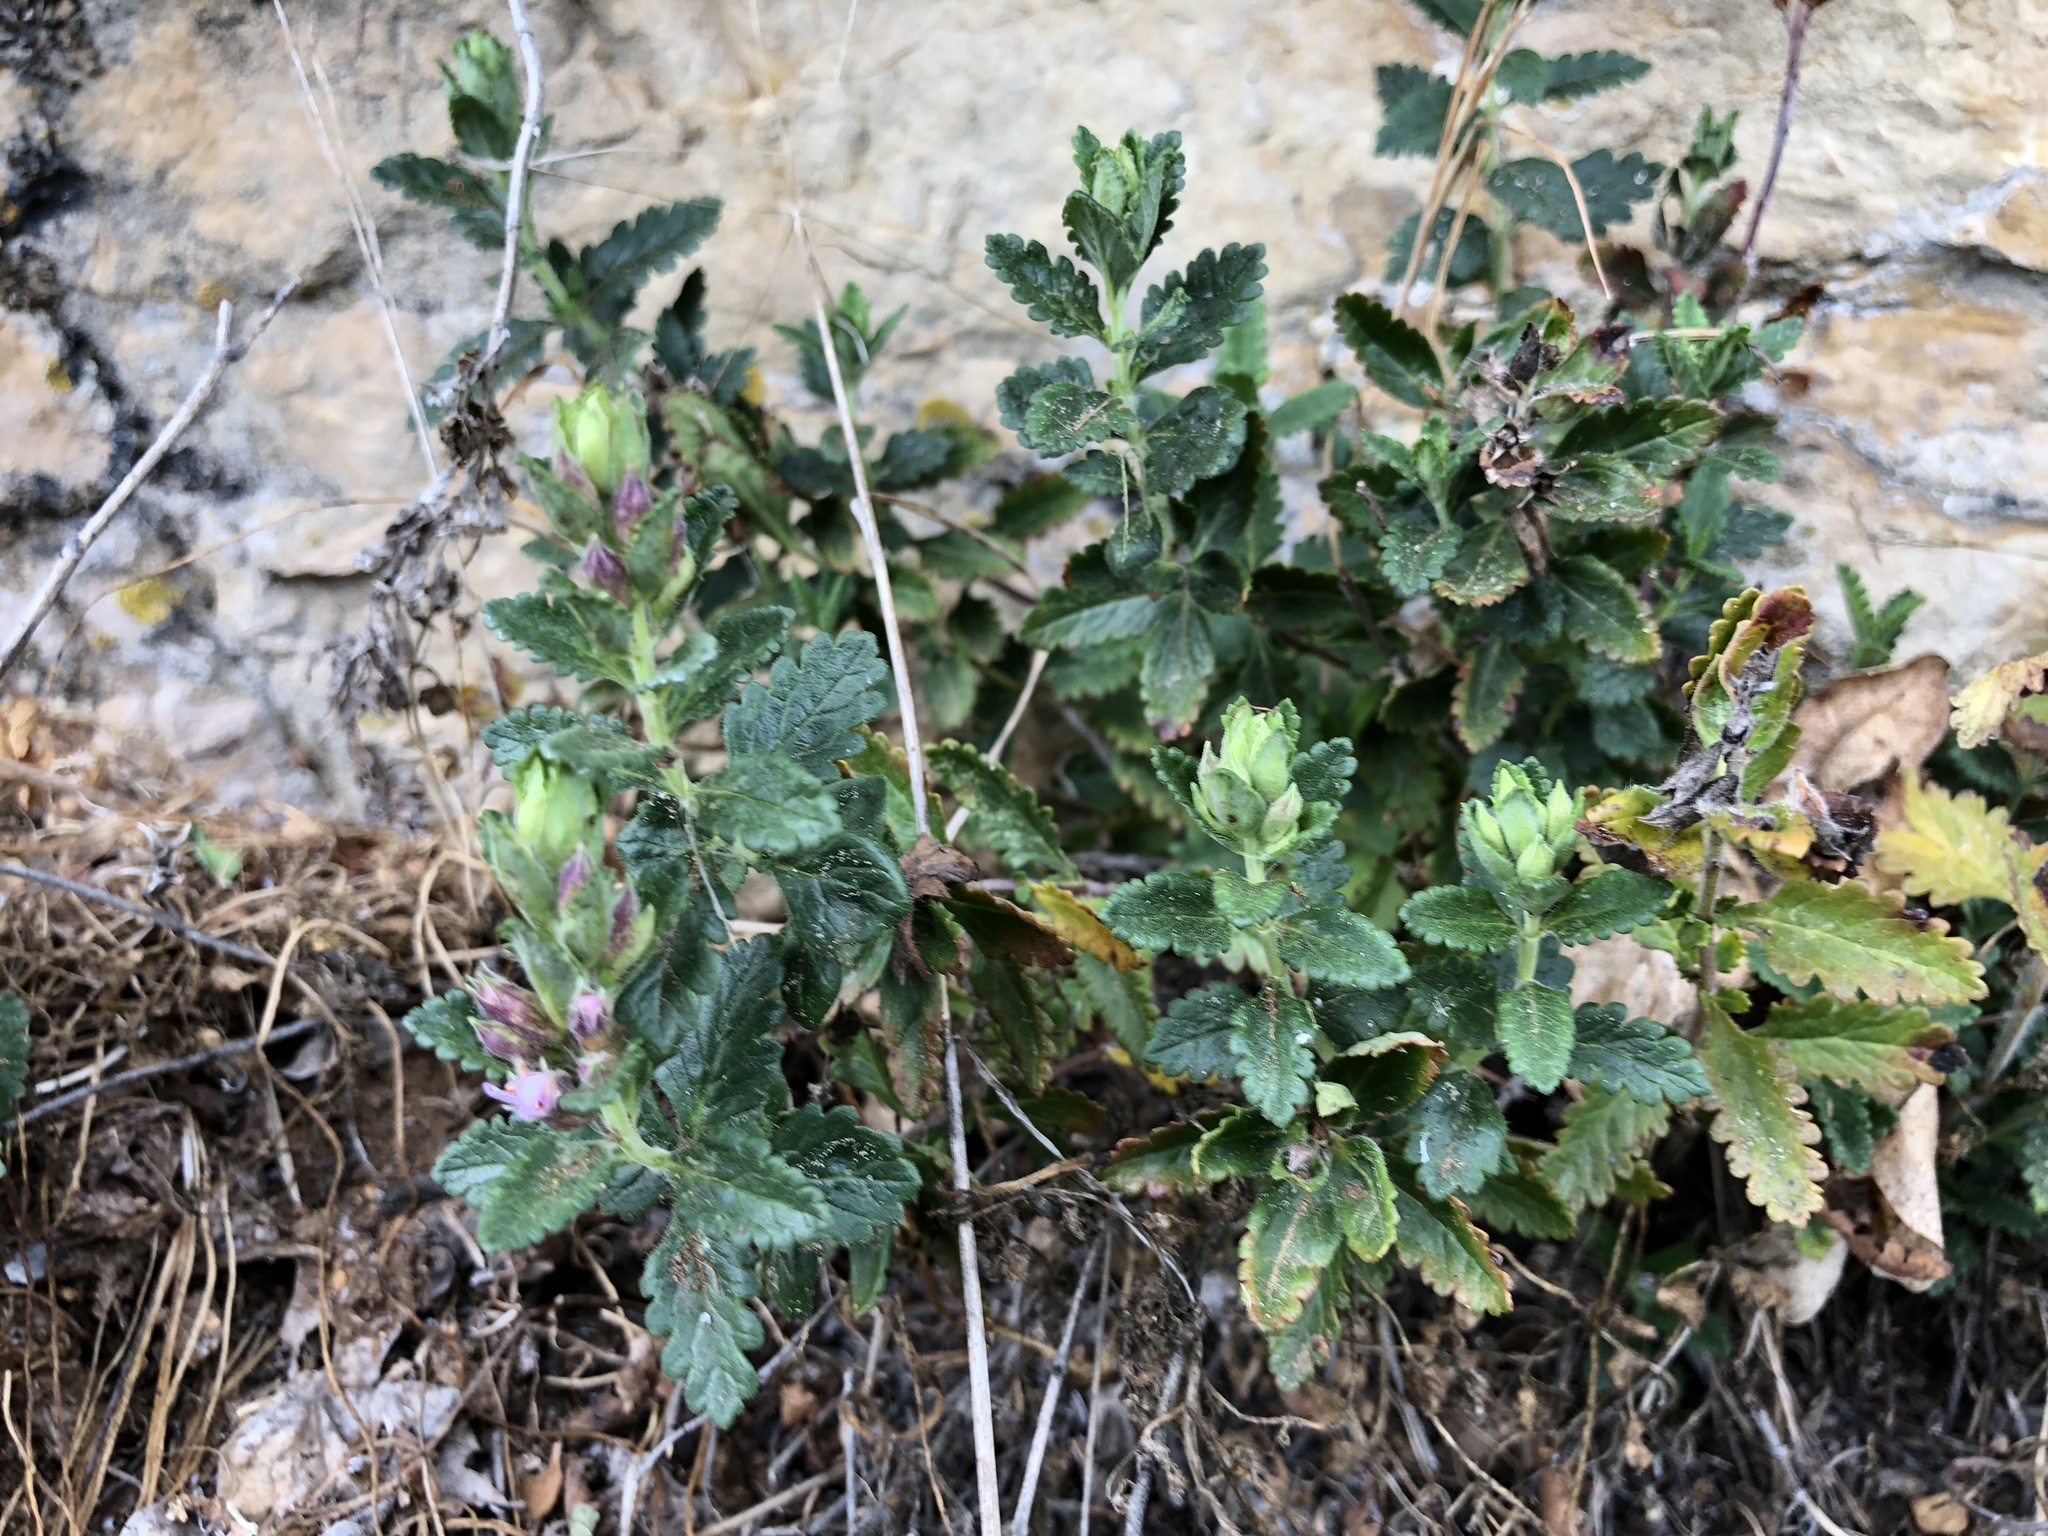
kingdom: Plantae
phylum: Tracheophyta
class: Magnoliopsida
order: Lamiales
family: Lamiaceae
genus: Teucrium
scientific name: Teucrium chamaedrys
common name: Wall germander
